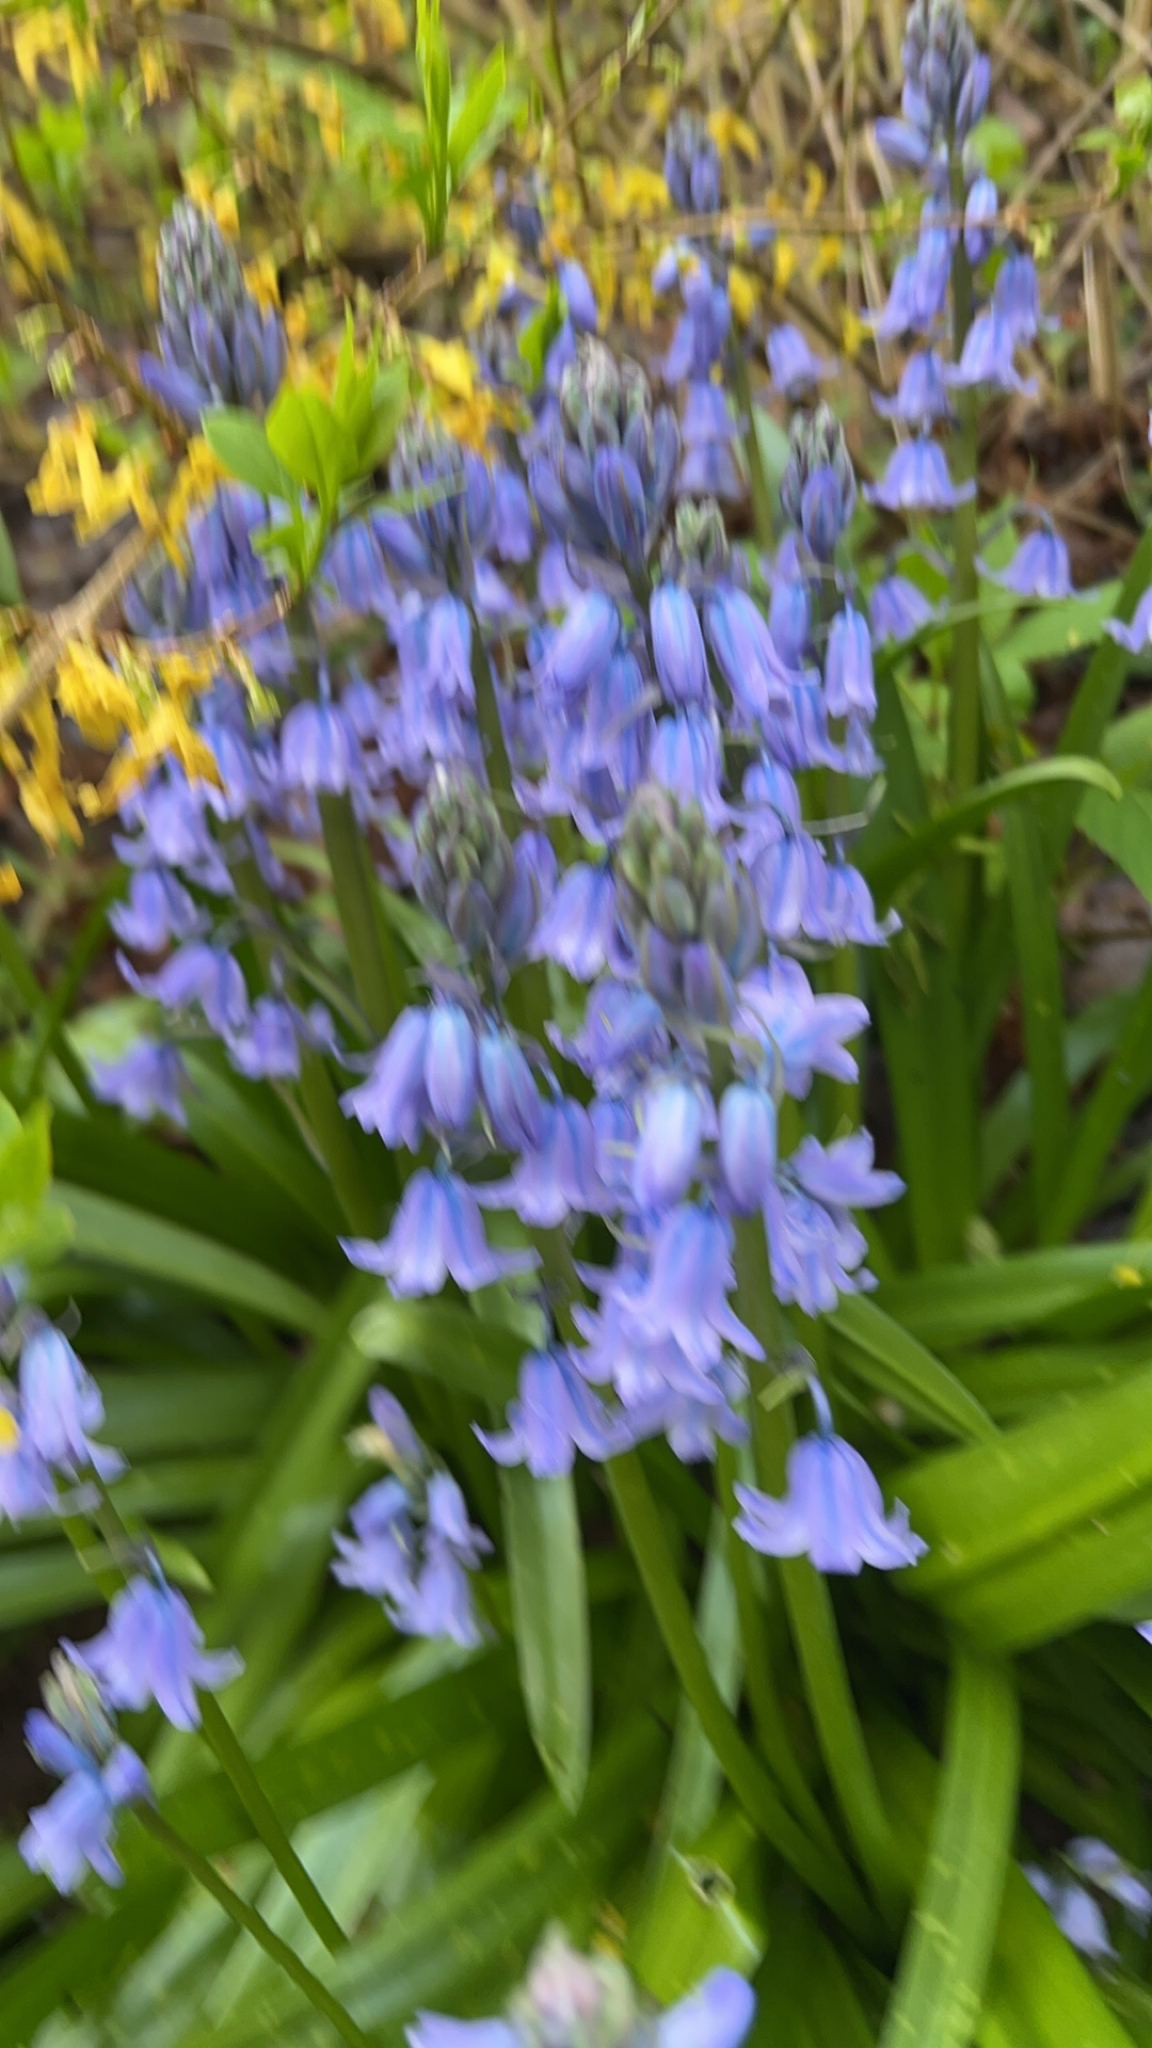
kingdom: Plantae
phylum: Tracheophyta
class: Liliopsida
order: Asparagales
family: Asparagaceae
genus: Hyacinthoides
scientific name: Hyacinthoides hispanica
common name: Spanish bluebell
